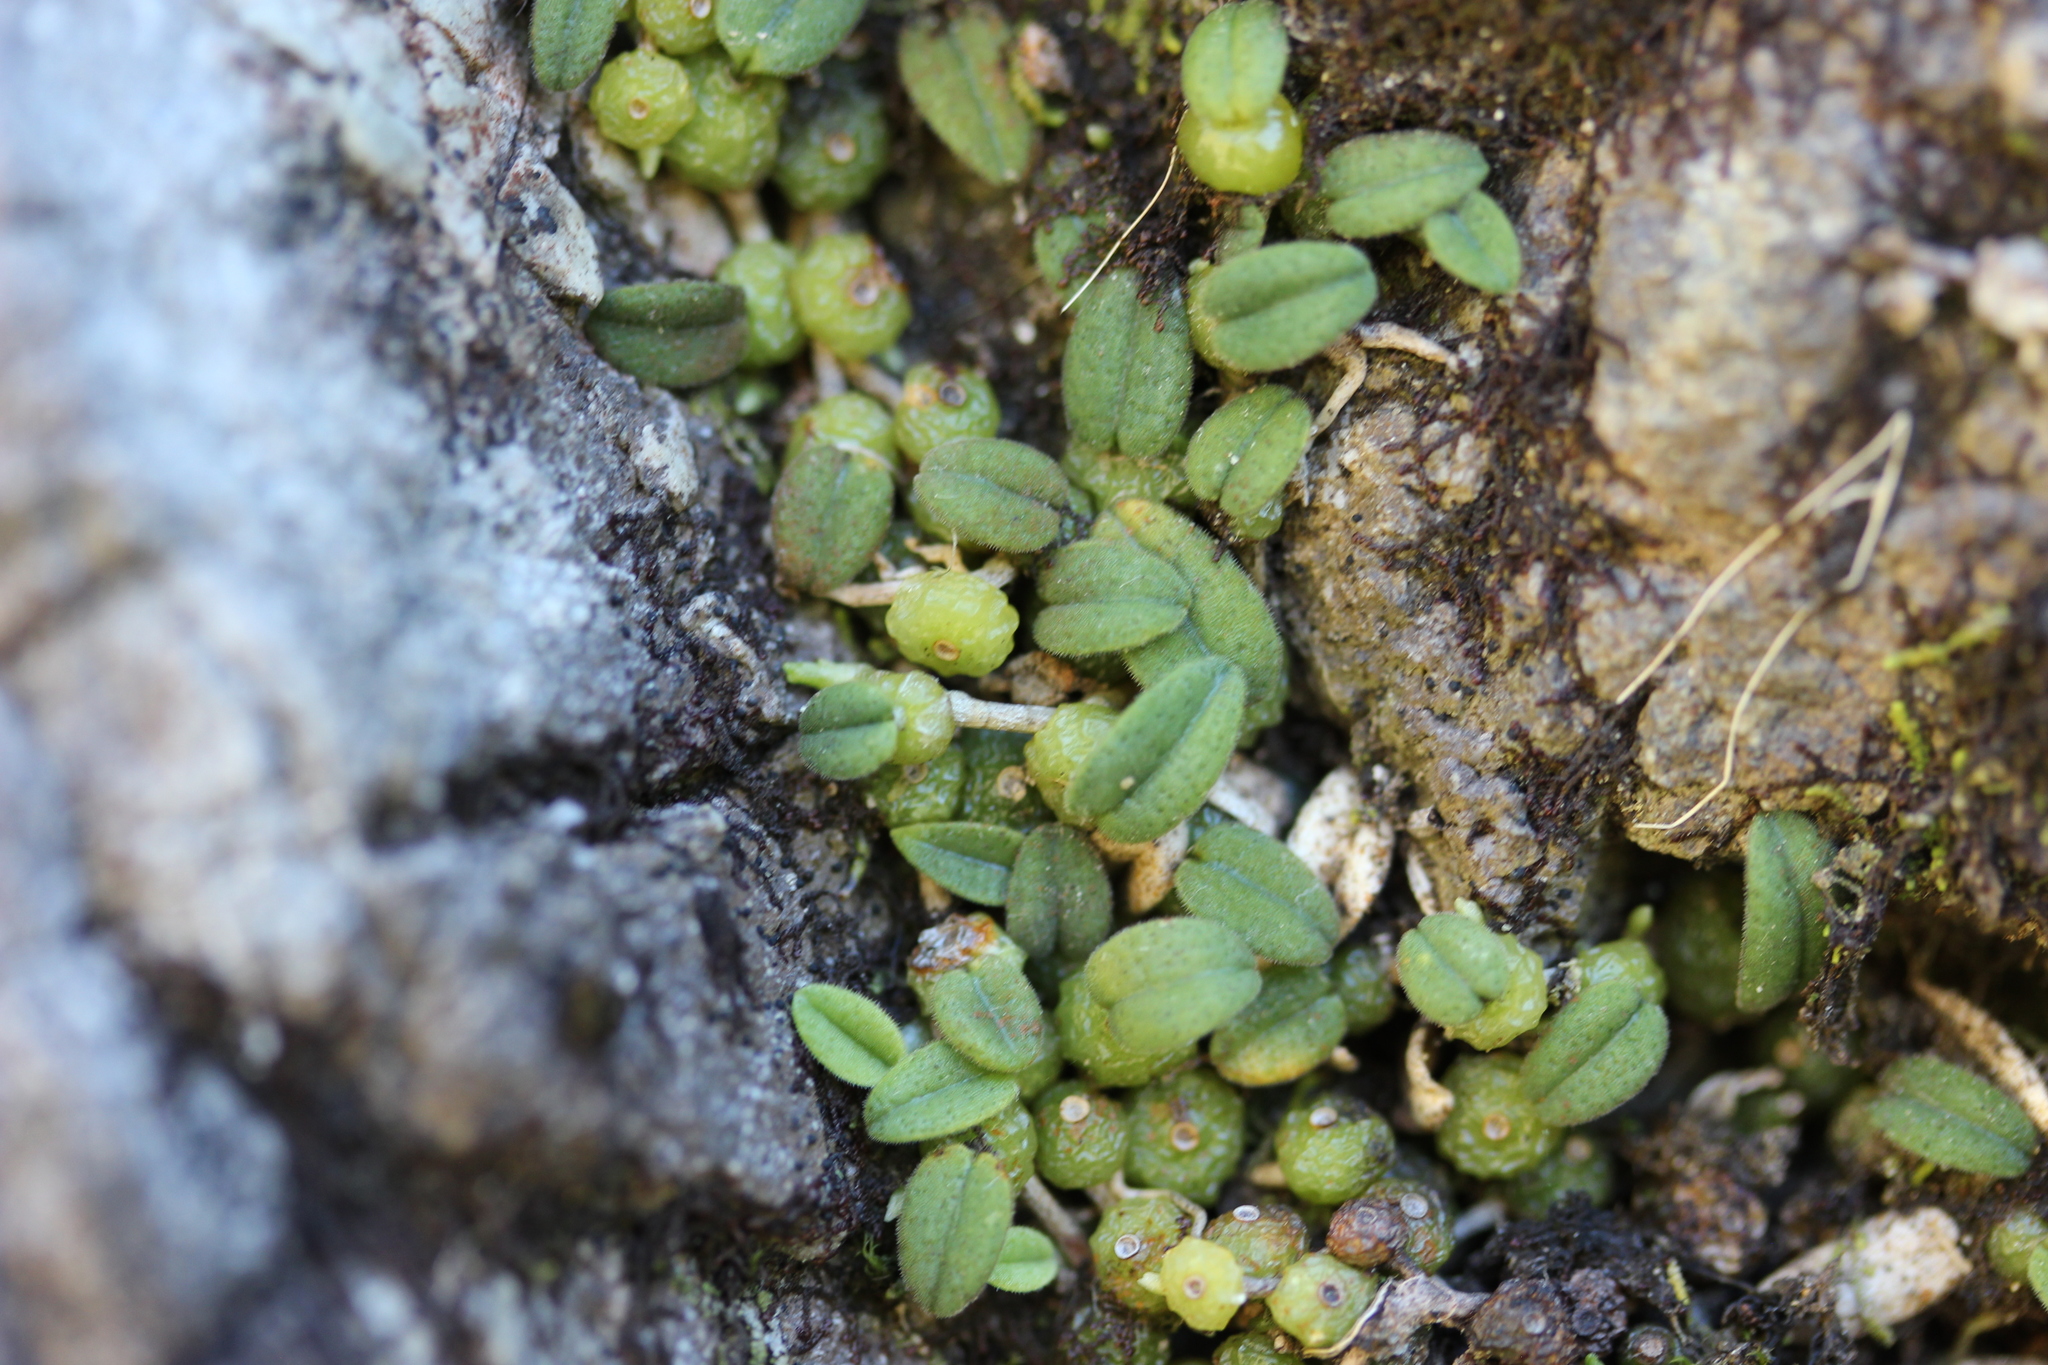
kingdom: Plantae
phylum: Tracheophyta
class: Liliopsida
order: Asparagales
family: Orchidaceae
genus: Bulbophyllum
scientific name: Bulbophyllum pygmaeum
